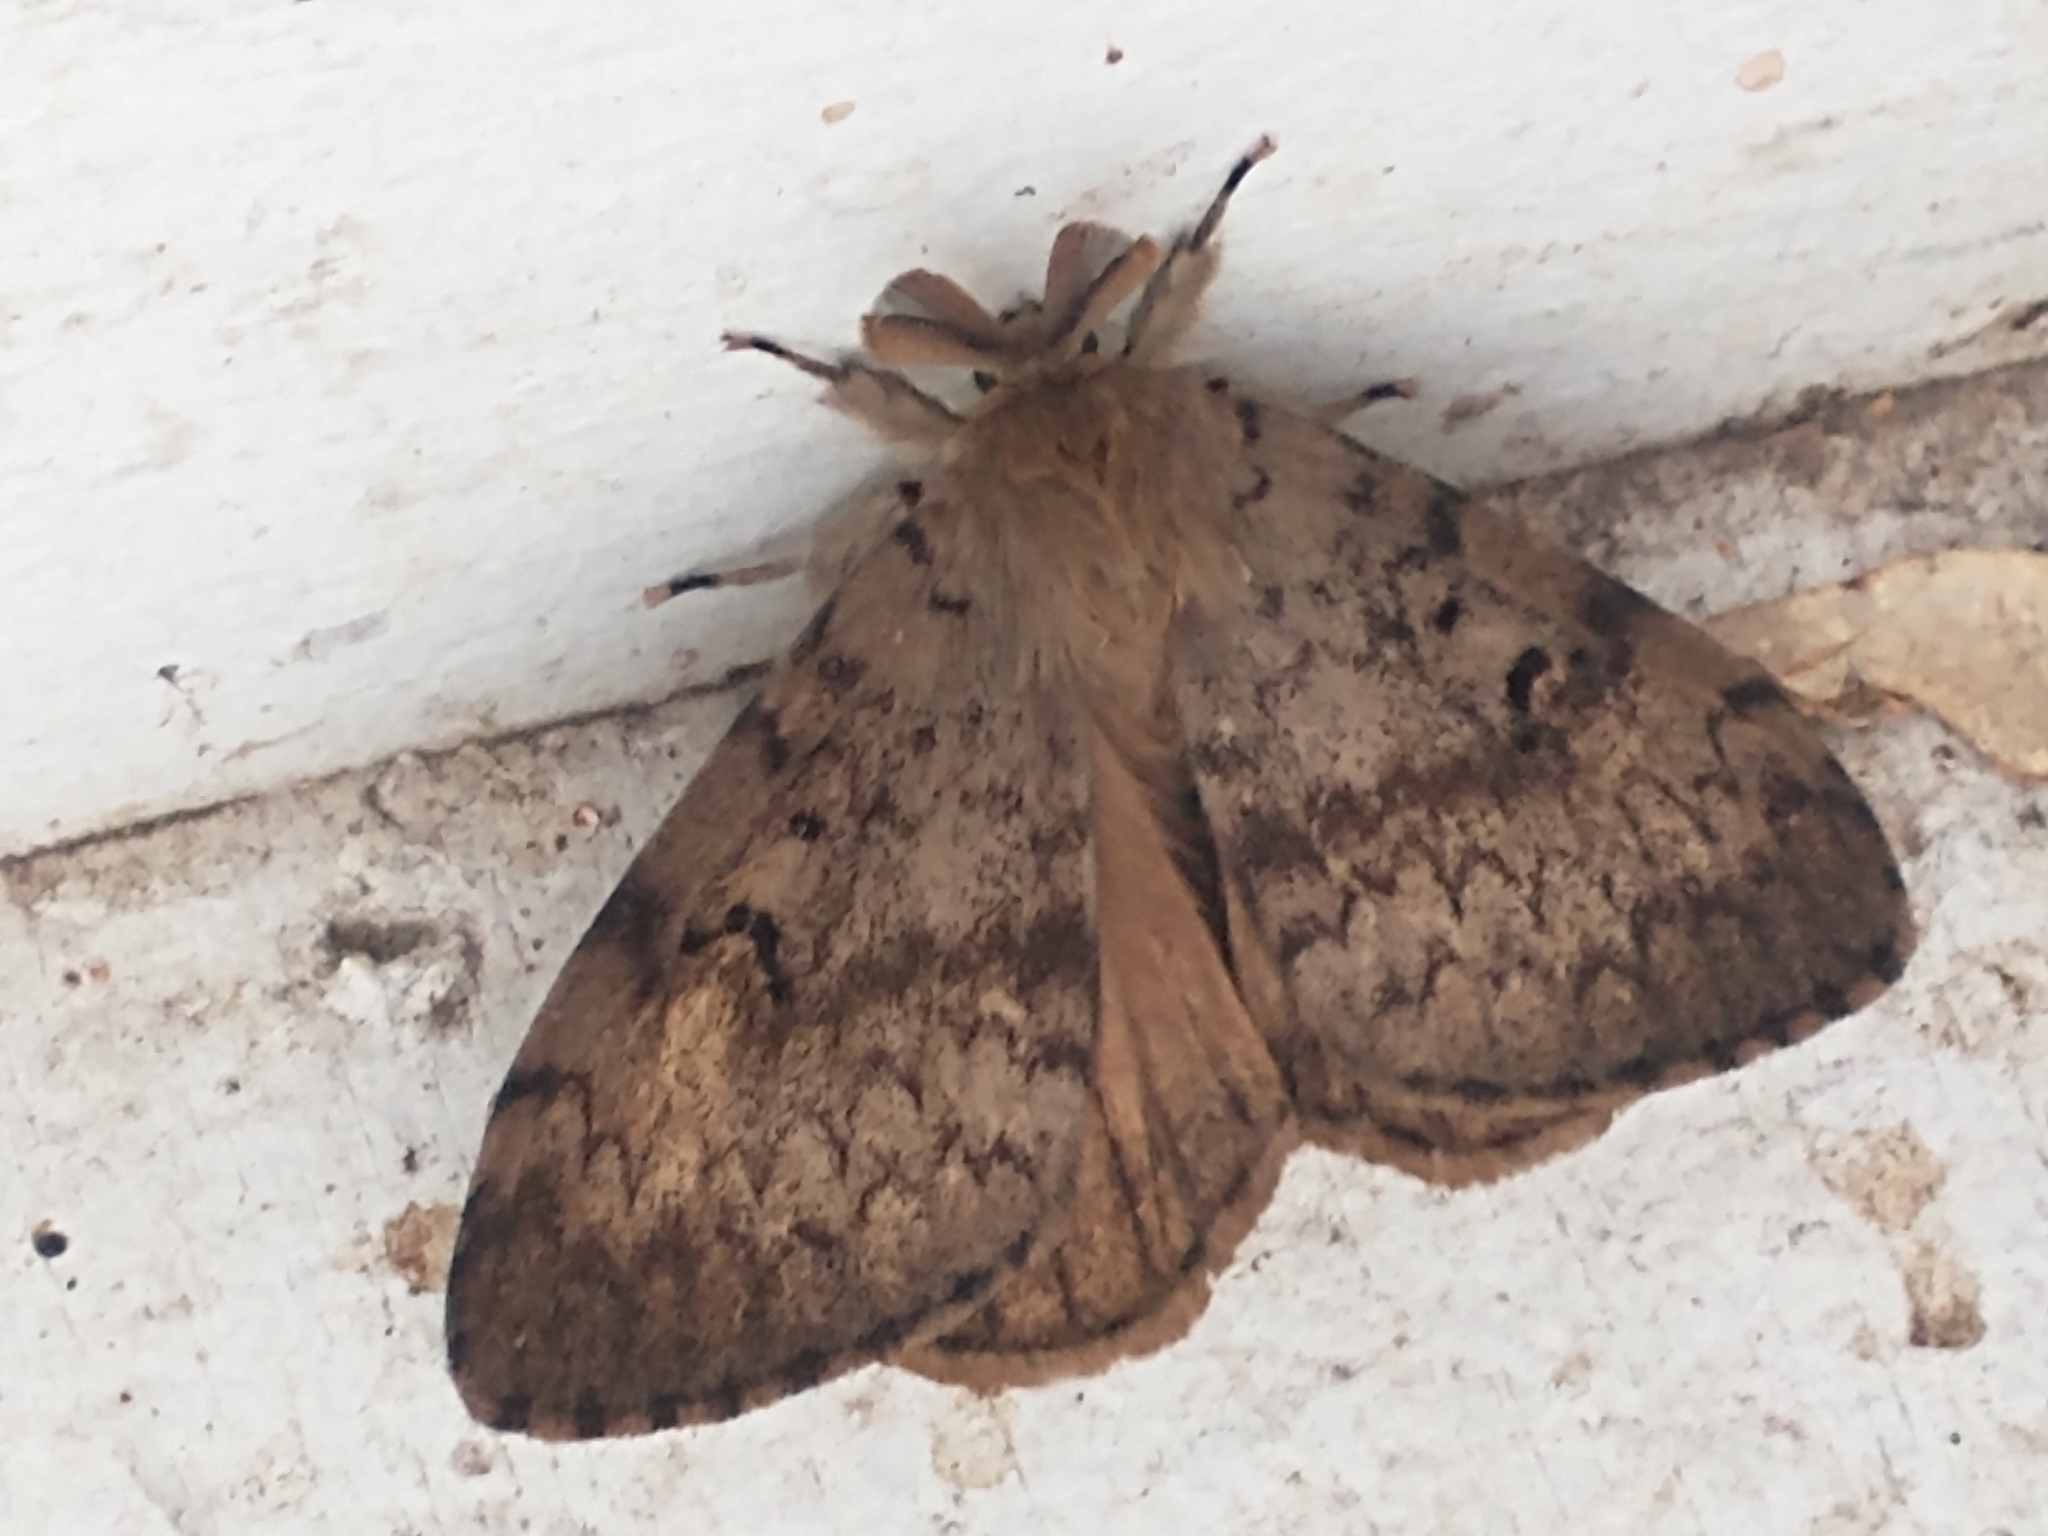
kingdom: Animalia
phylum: Arthropoda
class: Insecta
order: Lepidoptera
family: Erebidae
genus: Lymantria
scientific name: Lymantria dispar
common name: Gypsy moth
